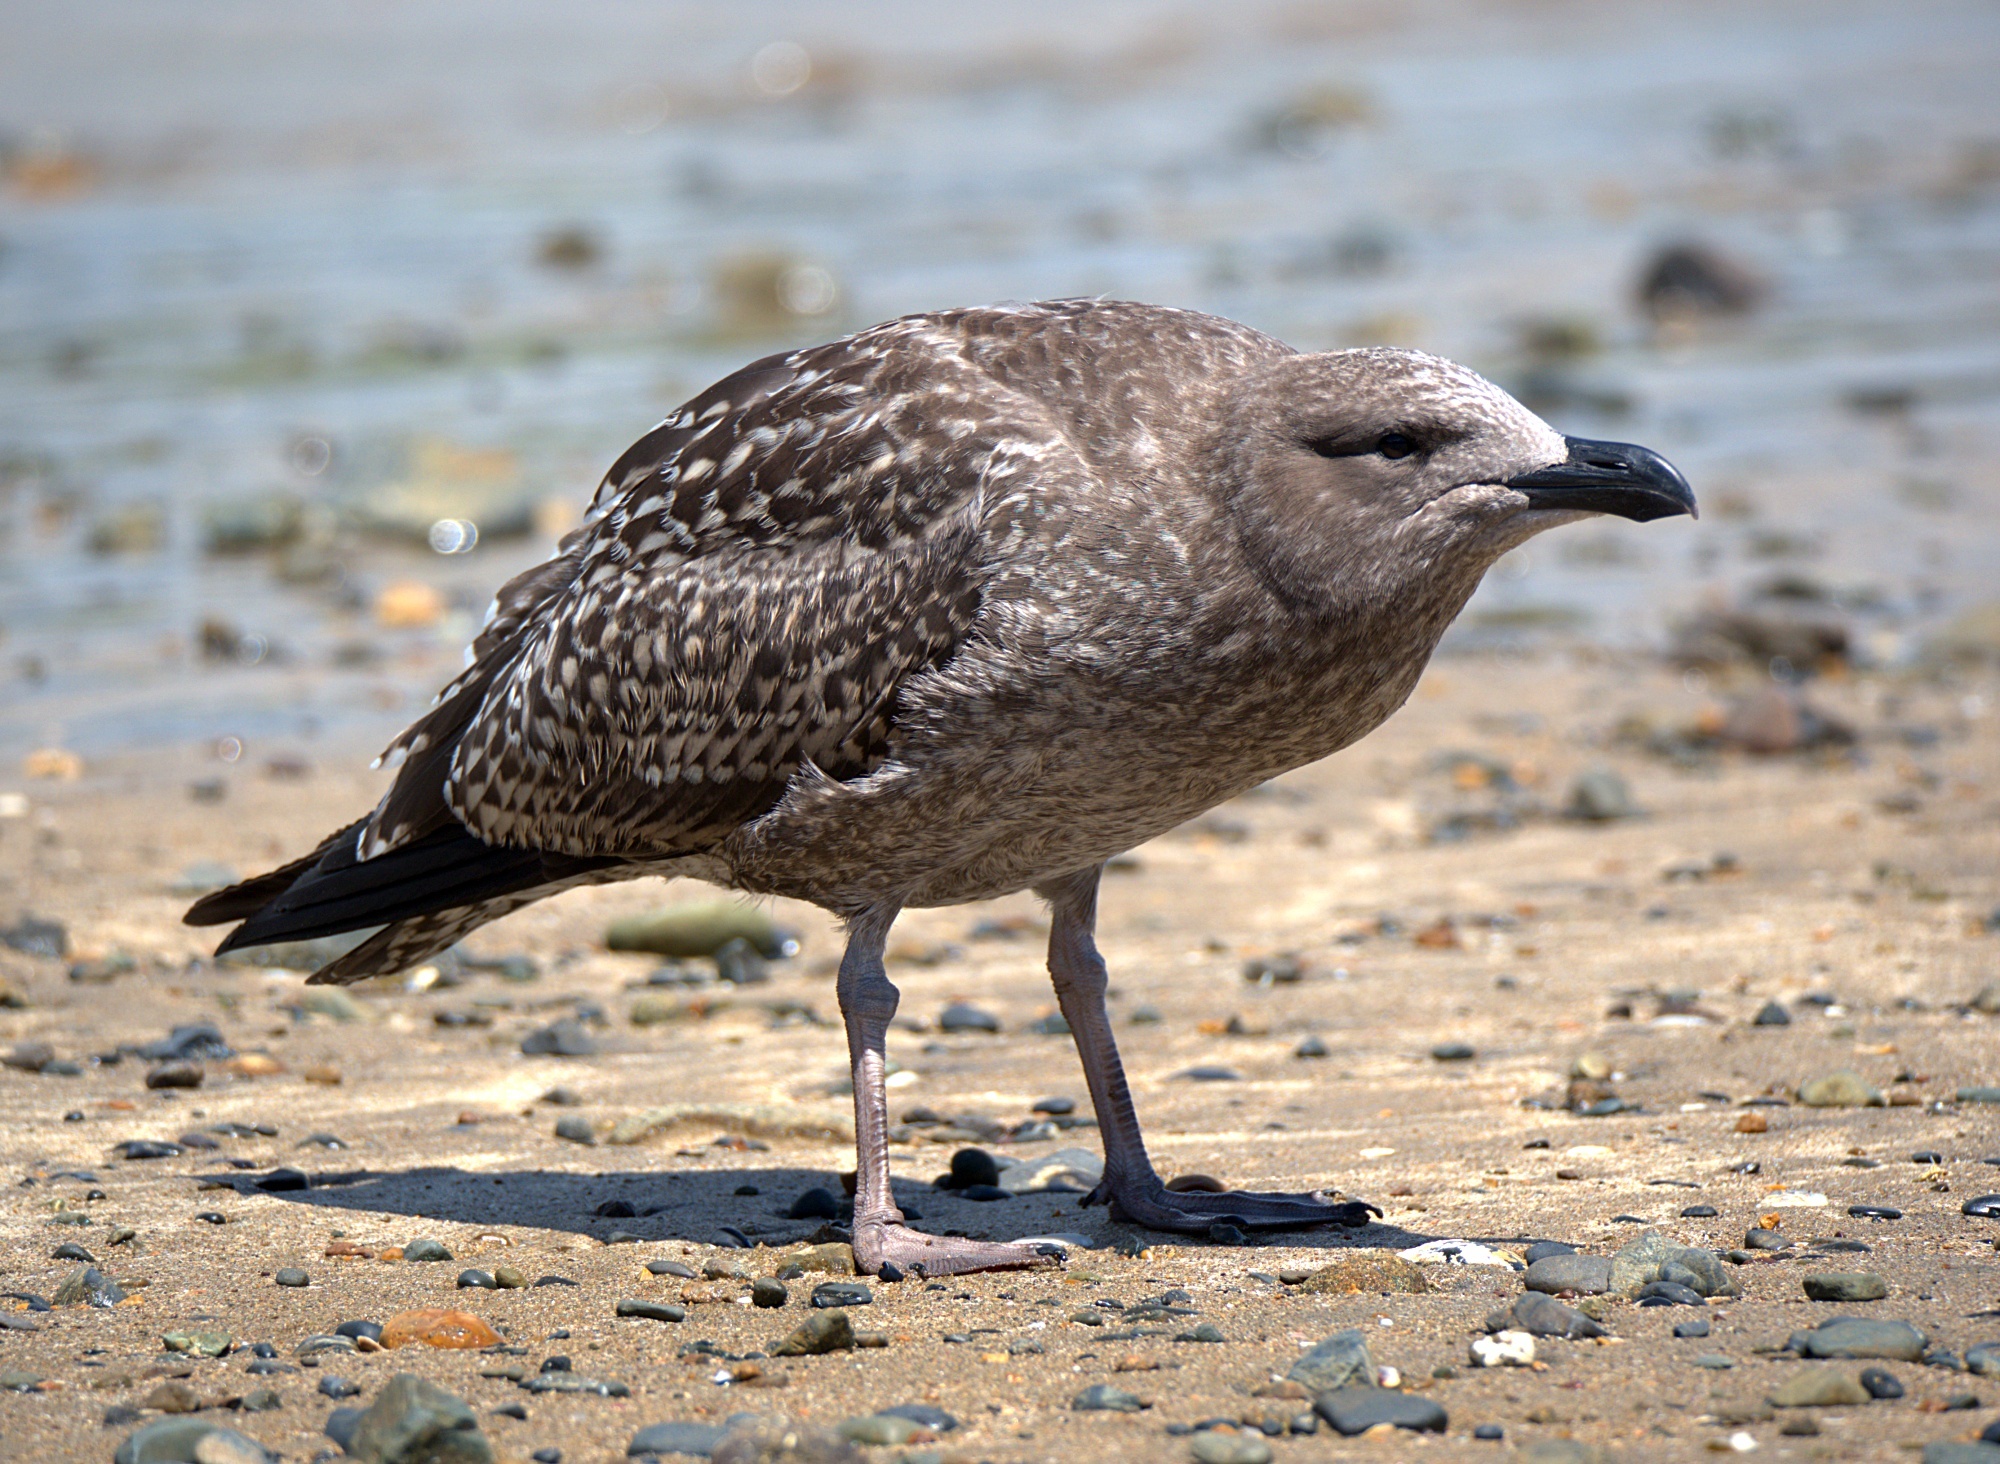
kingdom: Animalia
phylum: Chordata
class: Aves
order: Charadriiformes
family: Laridae
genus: Larus
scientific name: Larus dominicanus
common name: Kelp gull
